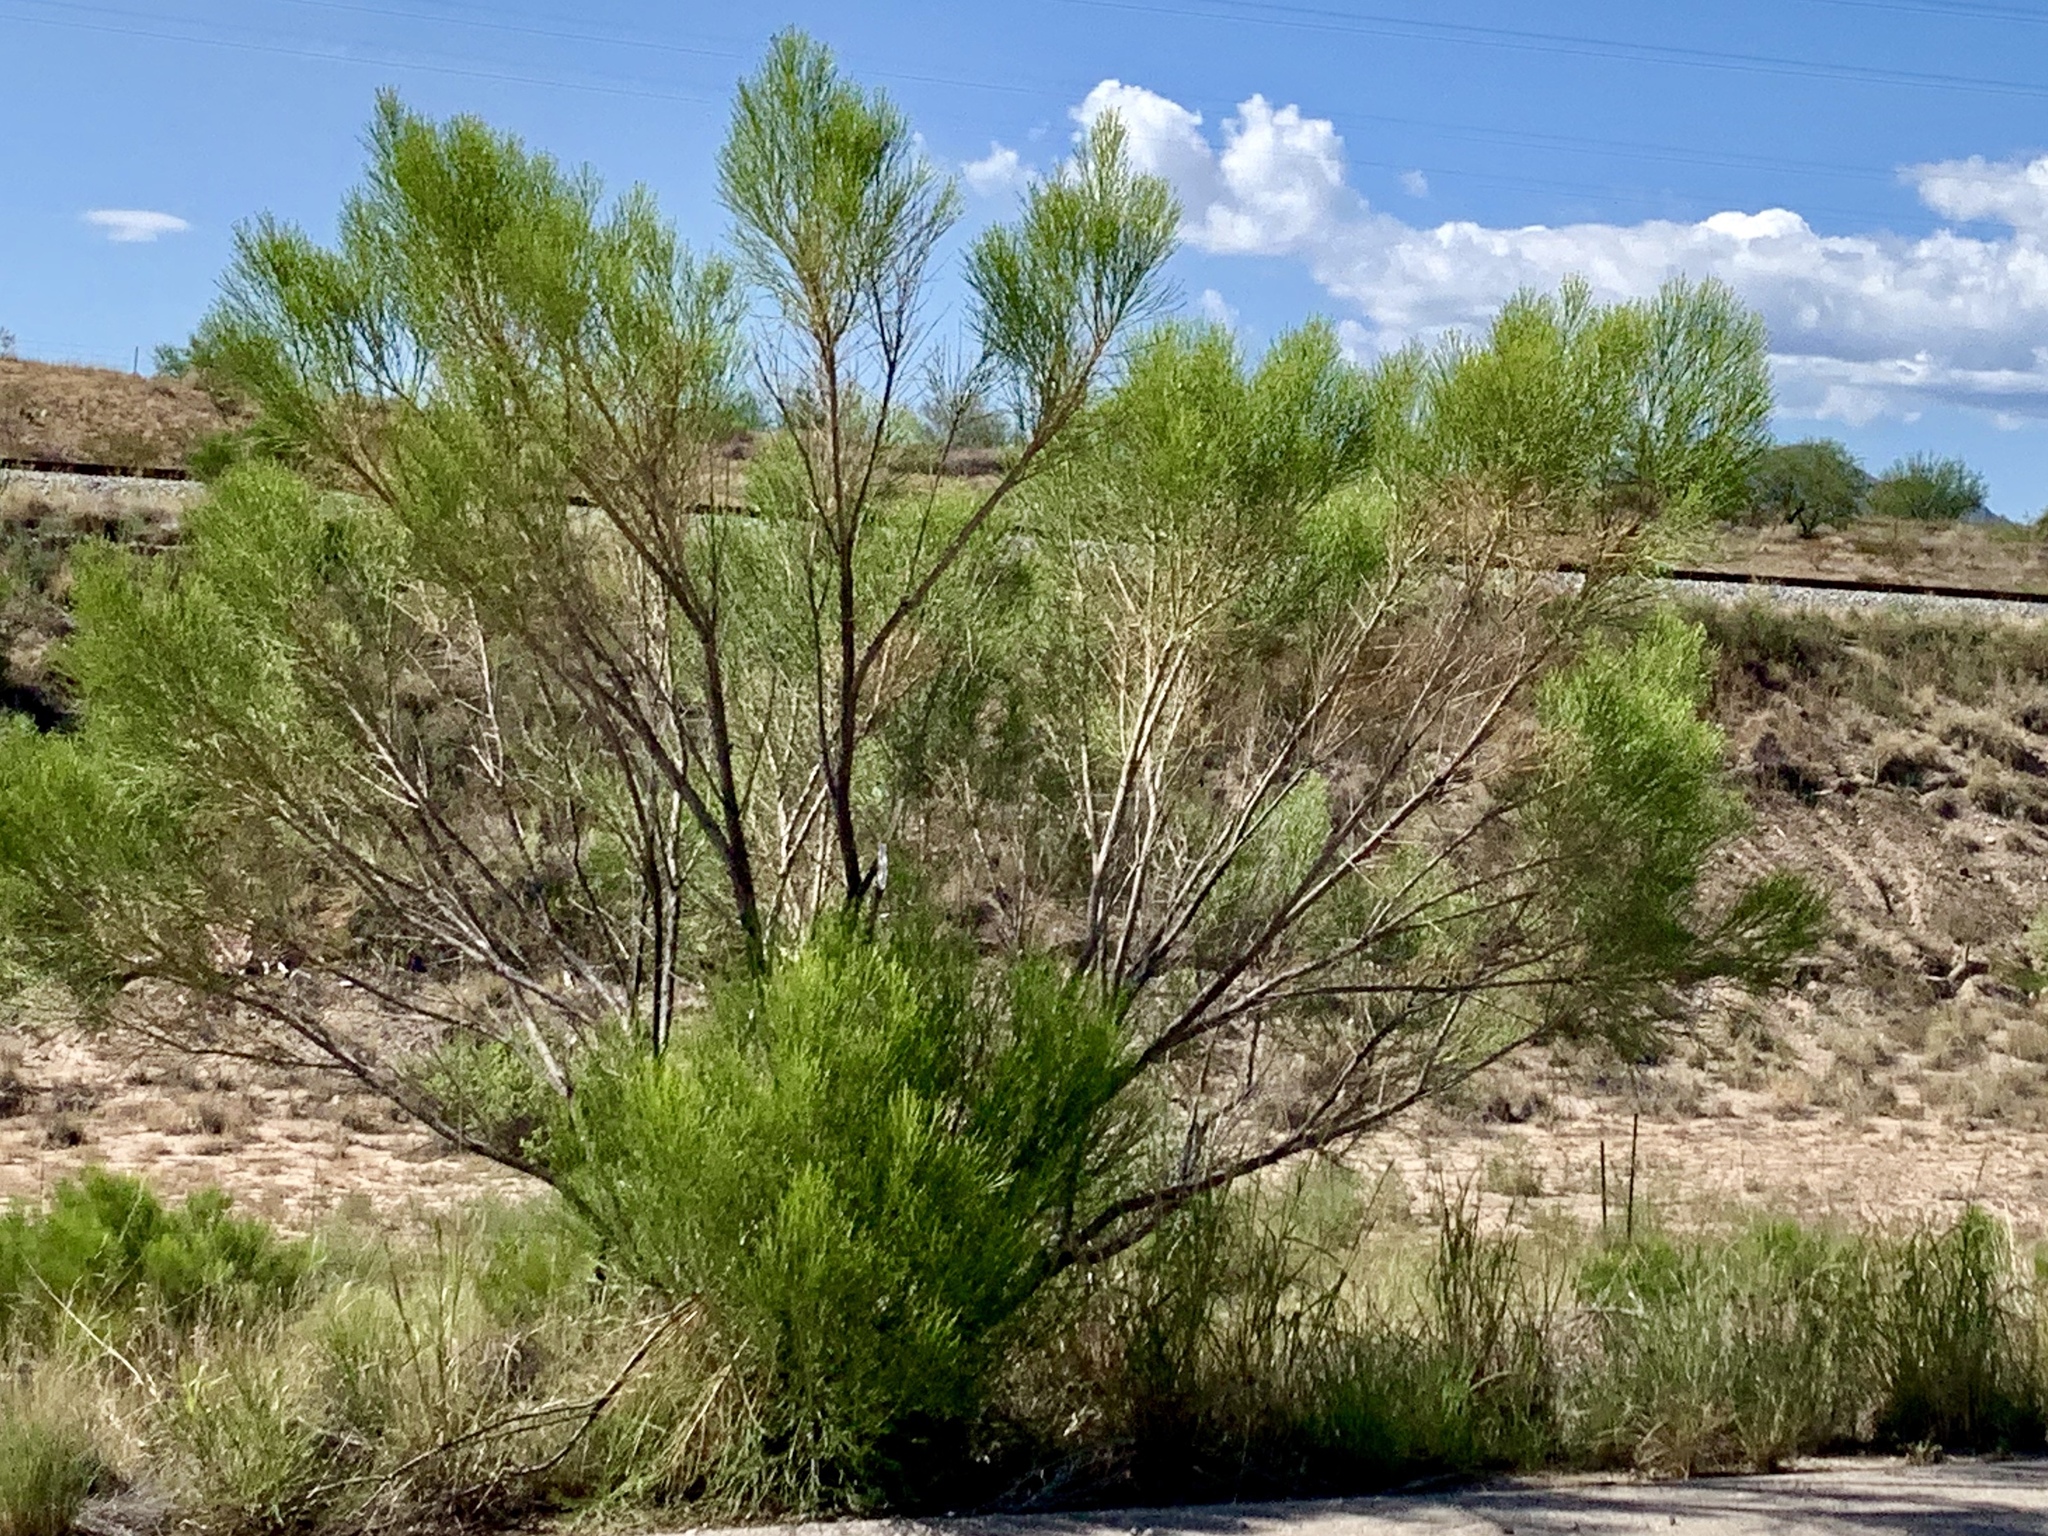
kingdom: Plantae
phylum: Tracheophyta
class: Magnoliopsida
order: Asterales
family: Asteraceae
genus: Baccharis
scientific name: Baccharis sarothroides
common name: Desert-broom
